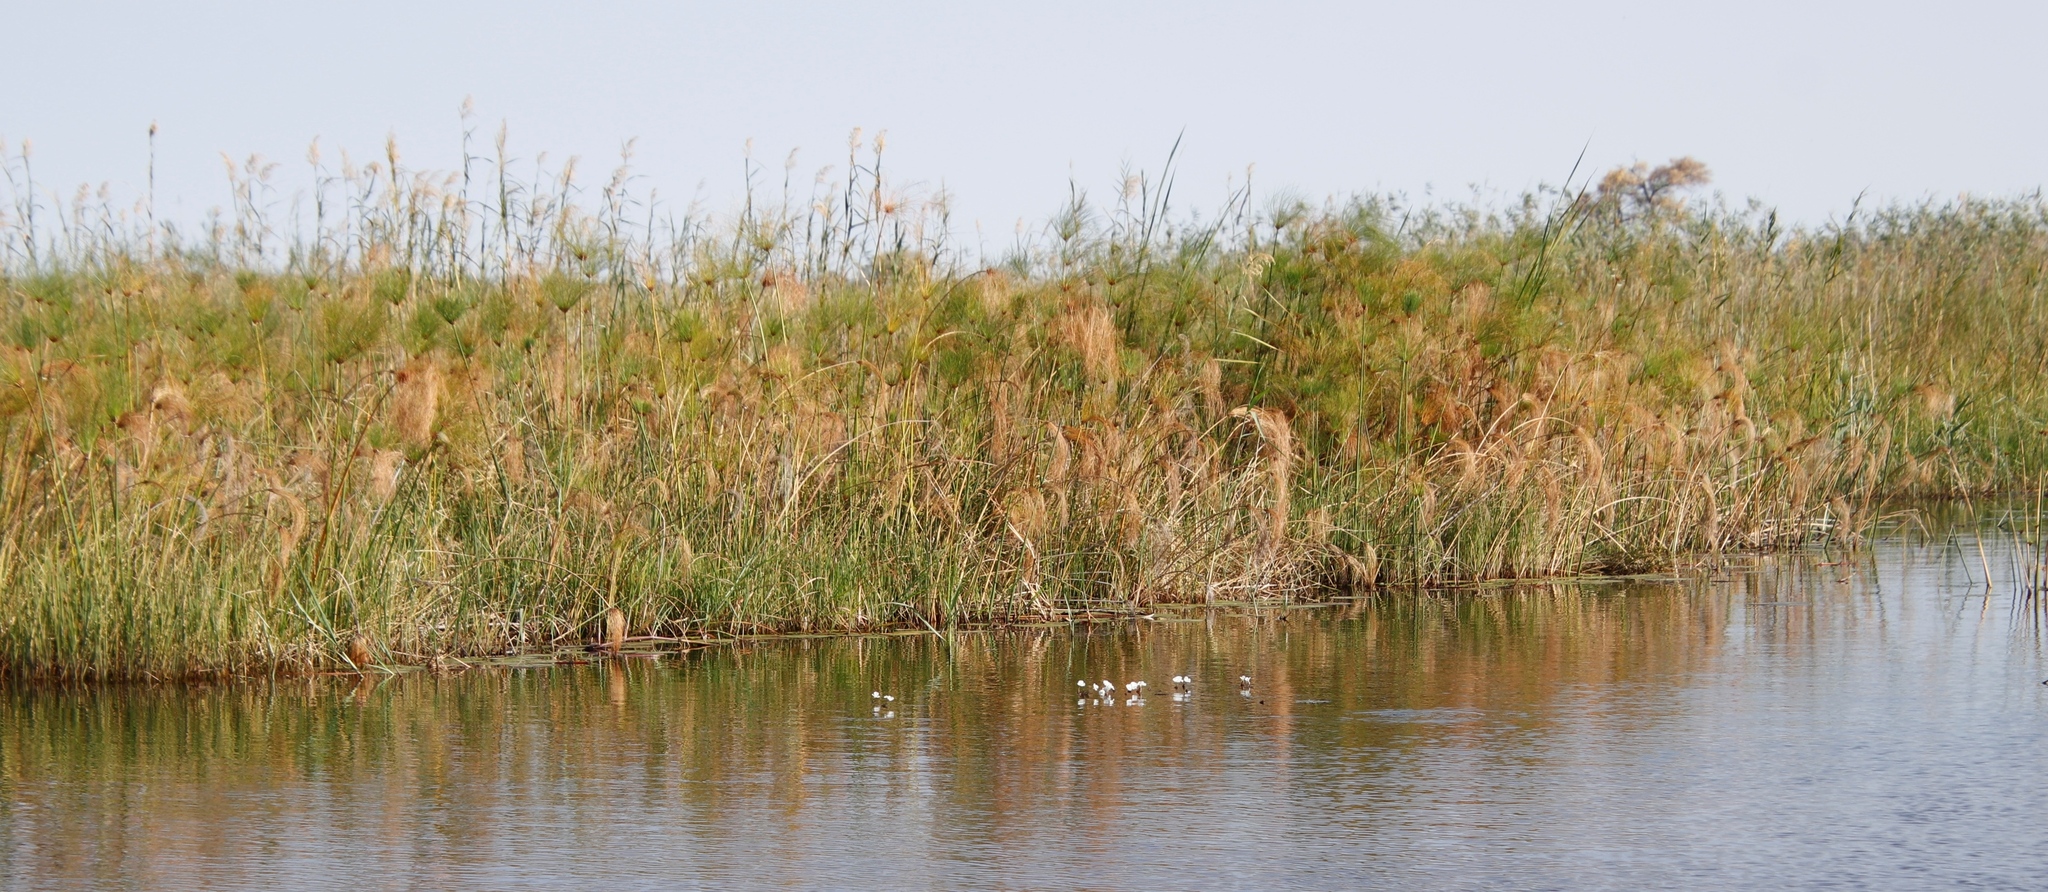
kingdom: Plantae
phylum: Tracheophyta
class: Liliopsida
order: Poales
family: Cyperaceae
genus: Cyperus
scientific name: Cyperus papyrus
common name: Papyrus
